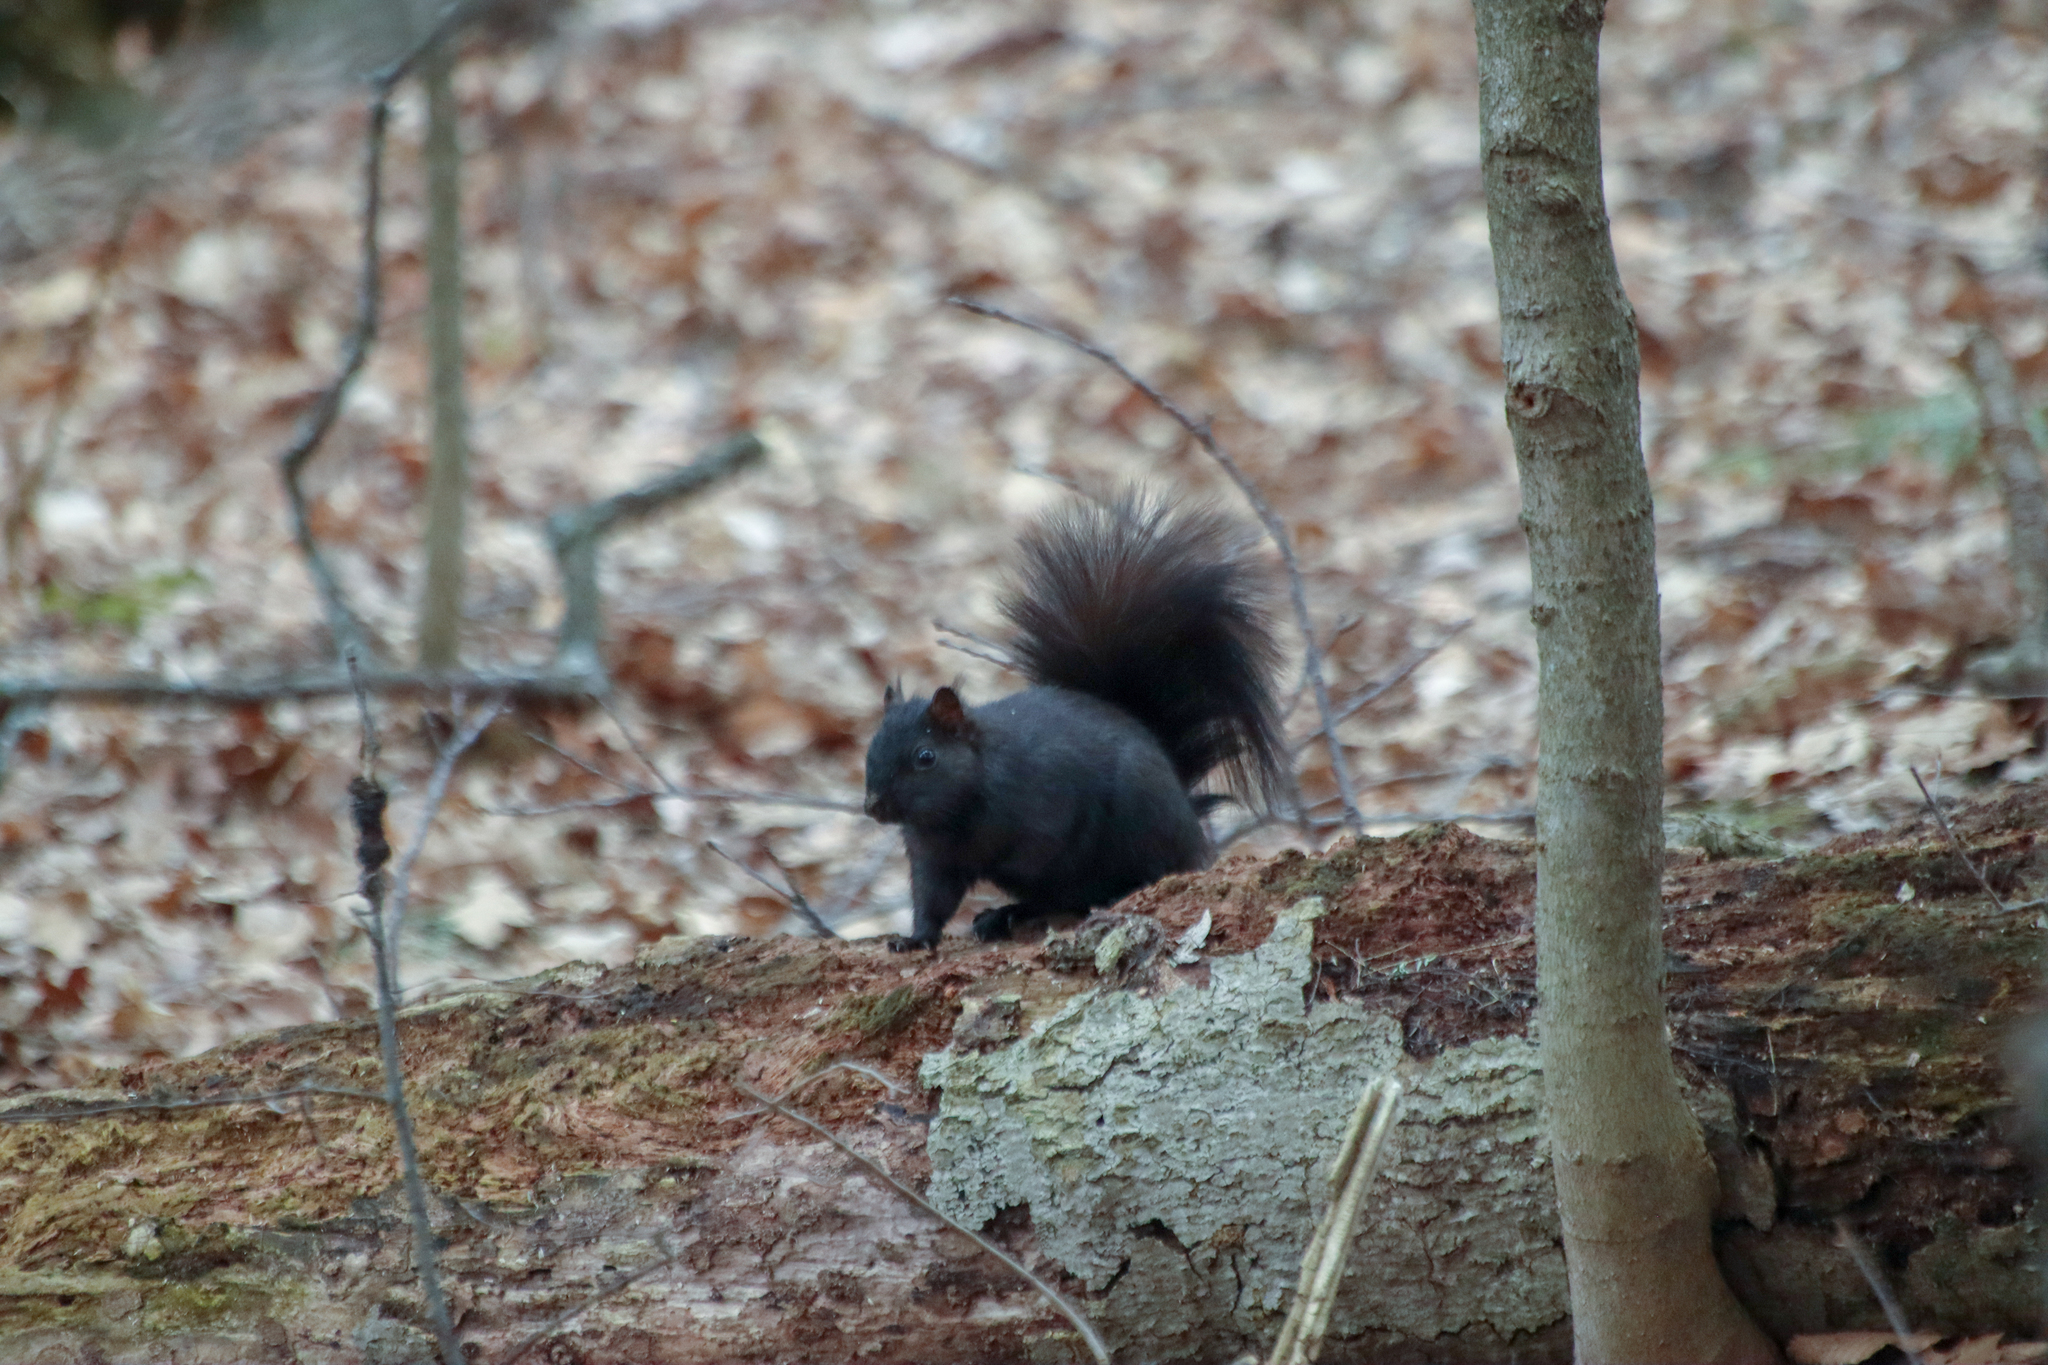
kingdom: Animalia
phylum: Chordata
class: Mammalia
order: Rodentia
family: Sciuridae
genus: Sciurus
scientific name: Sciurus carolinensis
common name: Eastern gray squirrel
